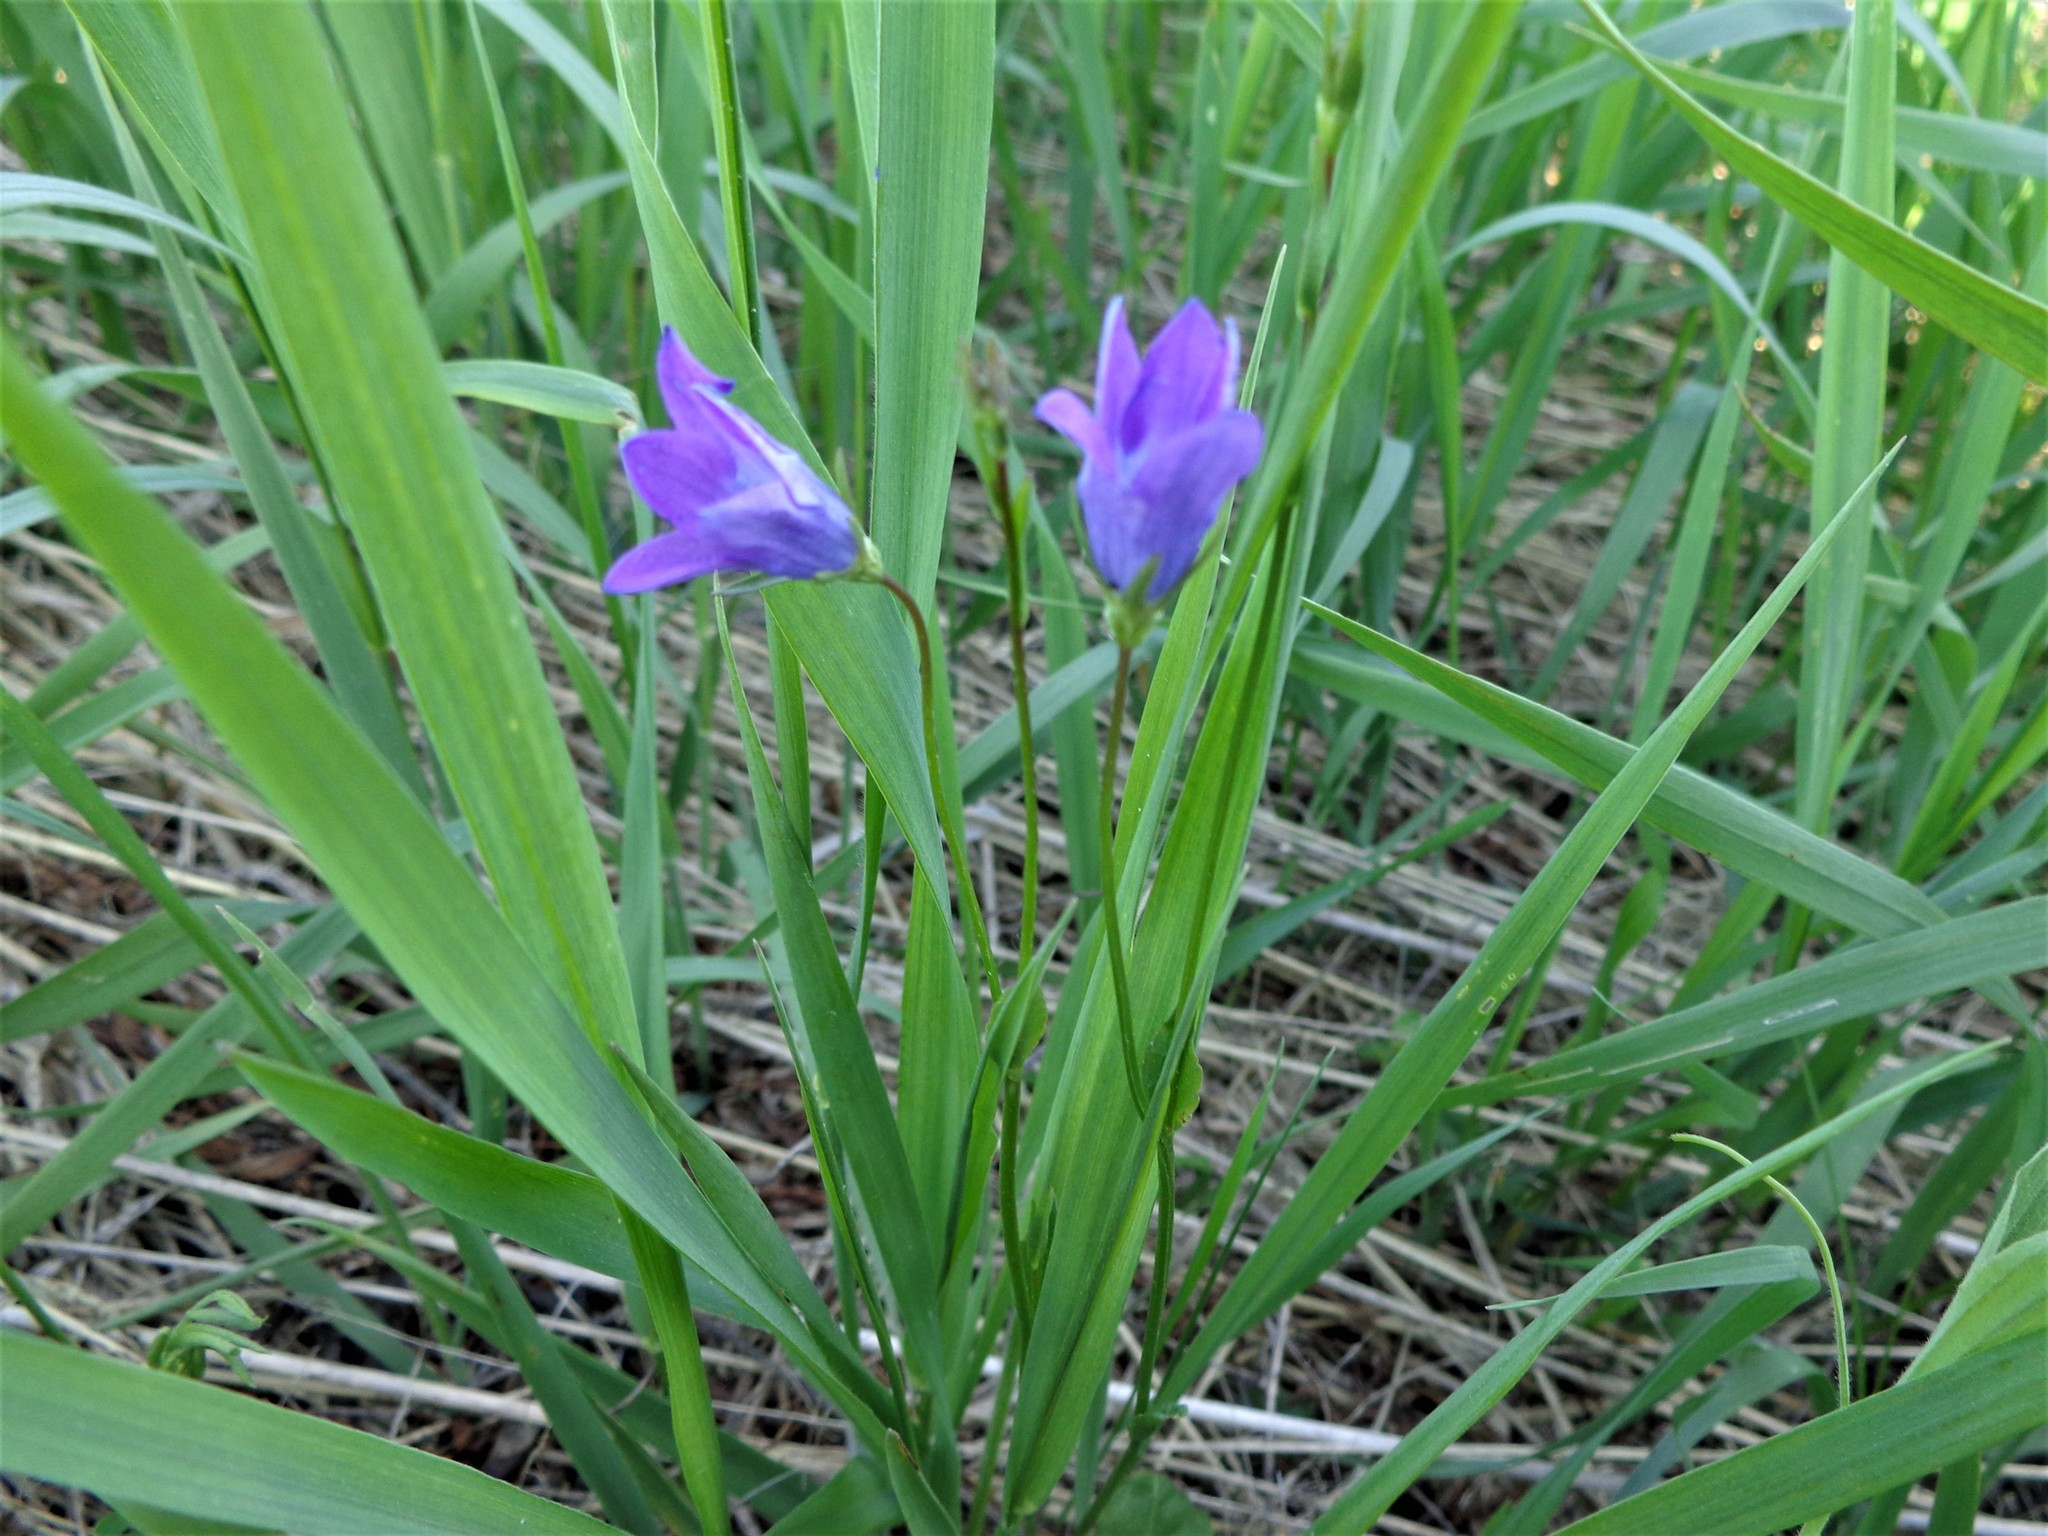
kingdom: Plantae
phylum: Tracheophyta
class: Magnoliopsida
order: Asterales
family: Campanulaceae
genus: Campanula
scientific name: Campanula patula
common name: Spreading bellflower
